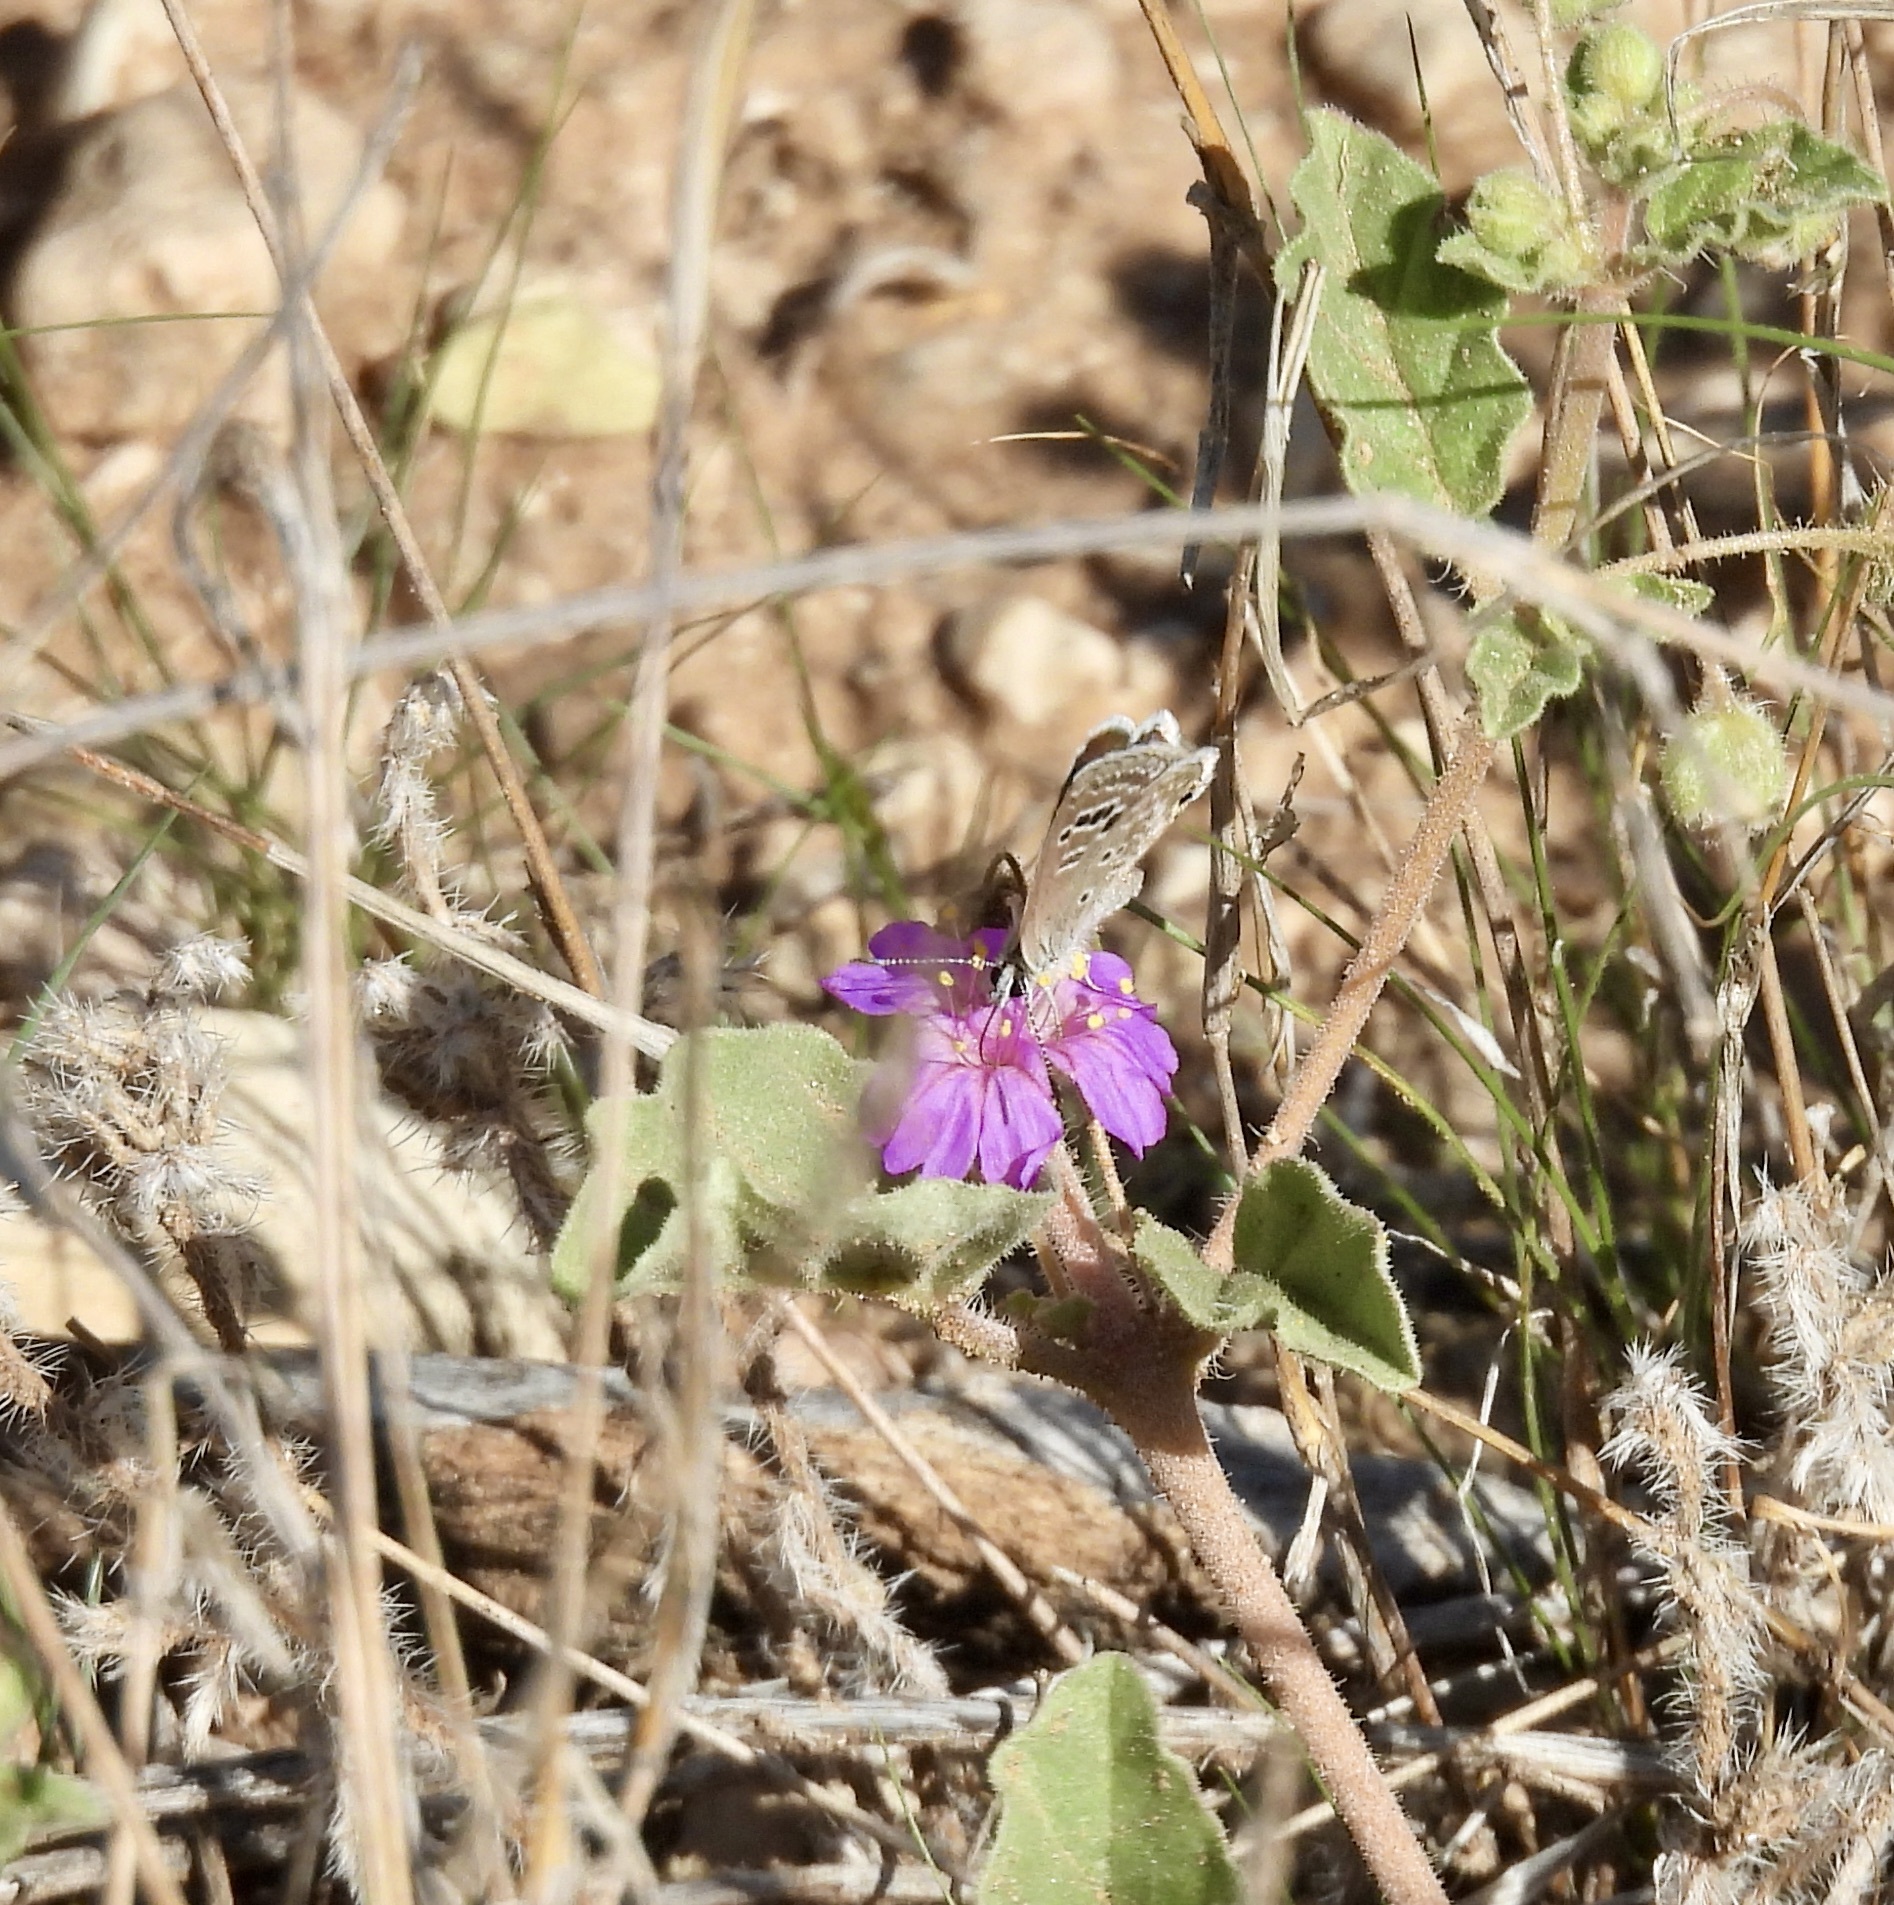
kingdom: Animalia
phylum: Arthropoda
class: Insecta
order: Lepidoptera
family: Lycaenidae
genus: Echinargus
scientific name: Echinargus isola
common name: Reakirt's blue
